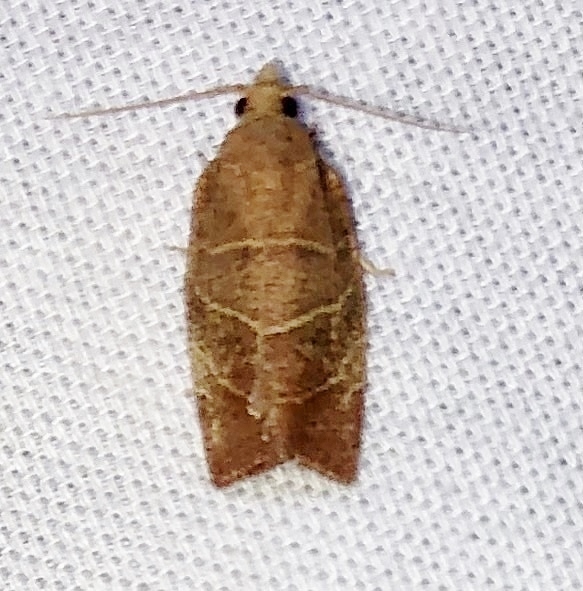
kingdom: Animalia
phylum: Arthropoda
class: Insecta
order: Lepidoptera
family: Tortricidae
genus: Pandemis
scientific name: Pandemis limitata
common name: Three-lined leafroller moth
